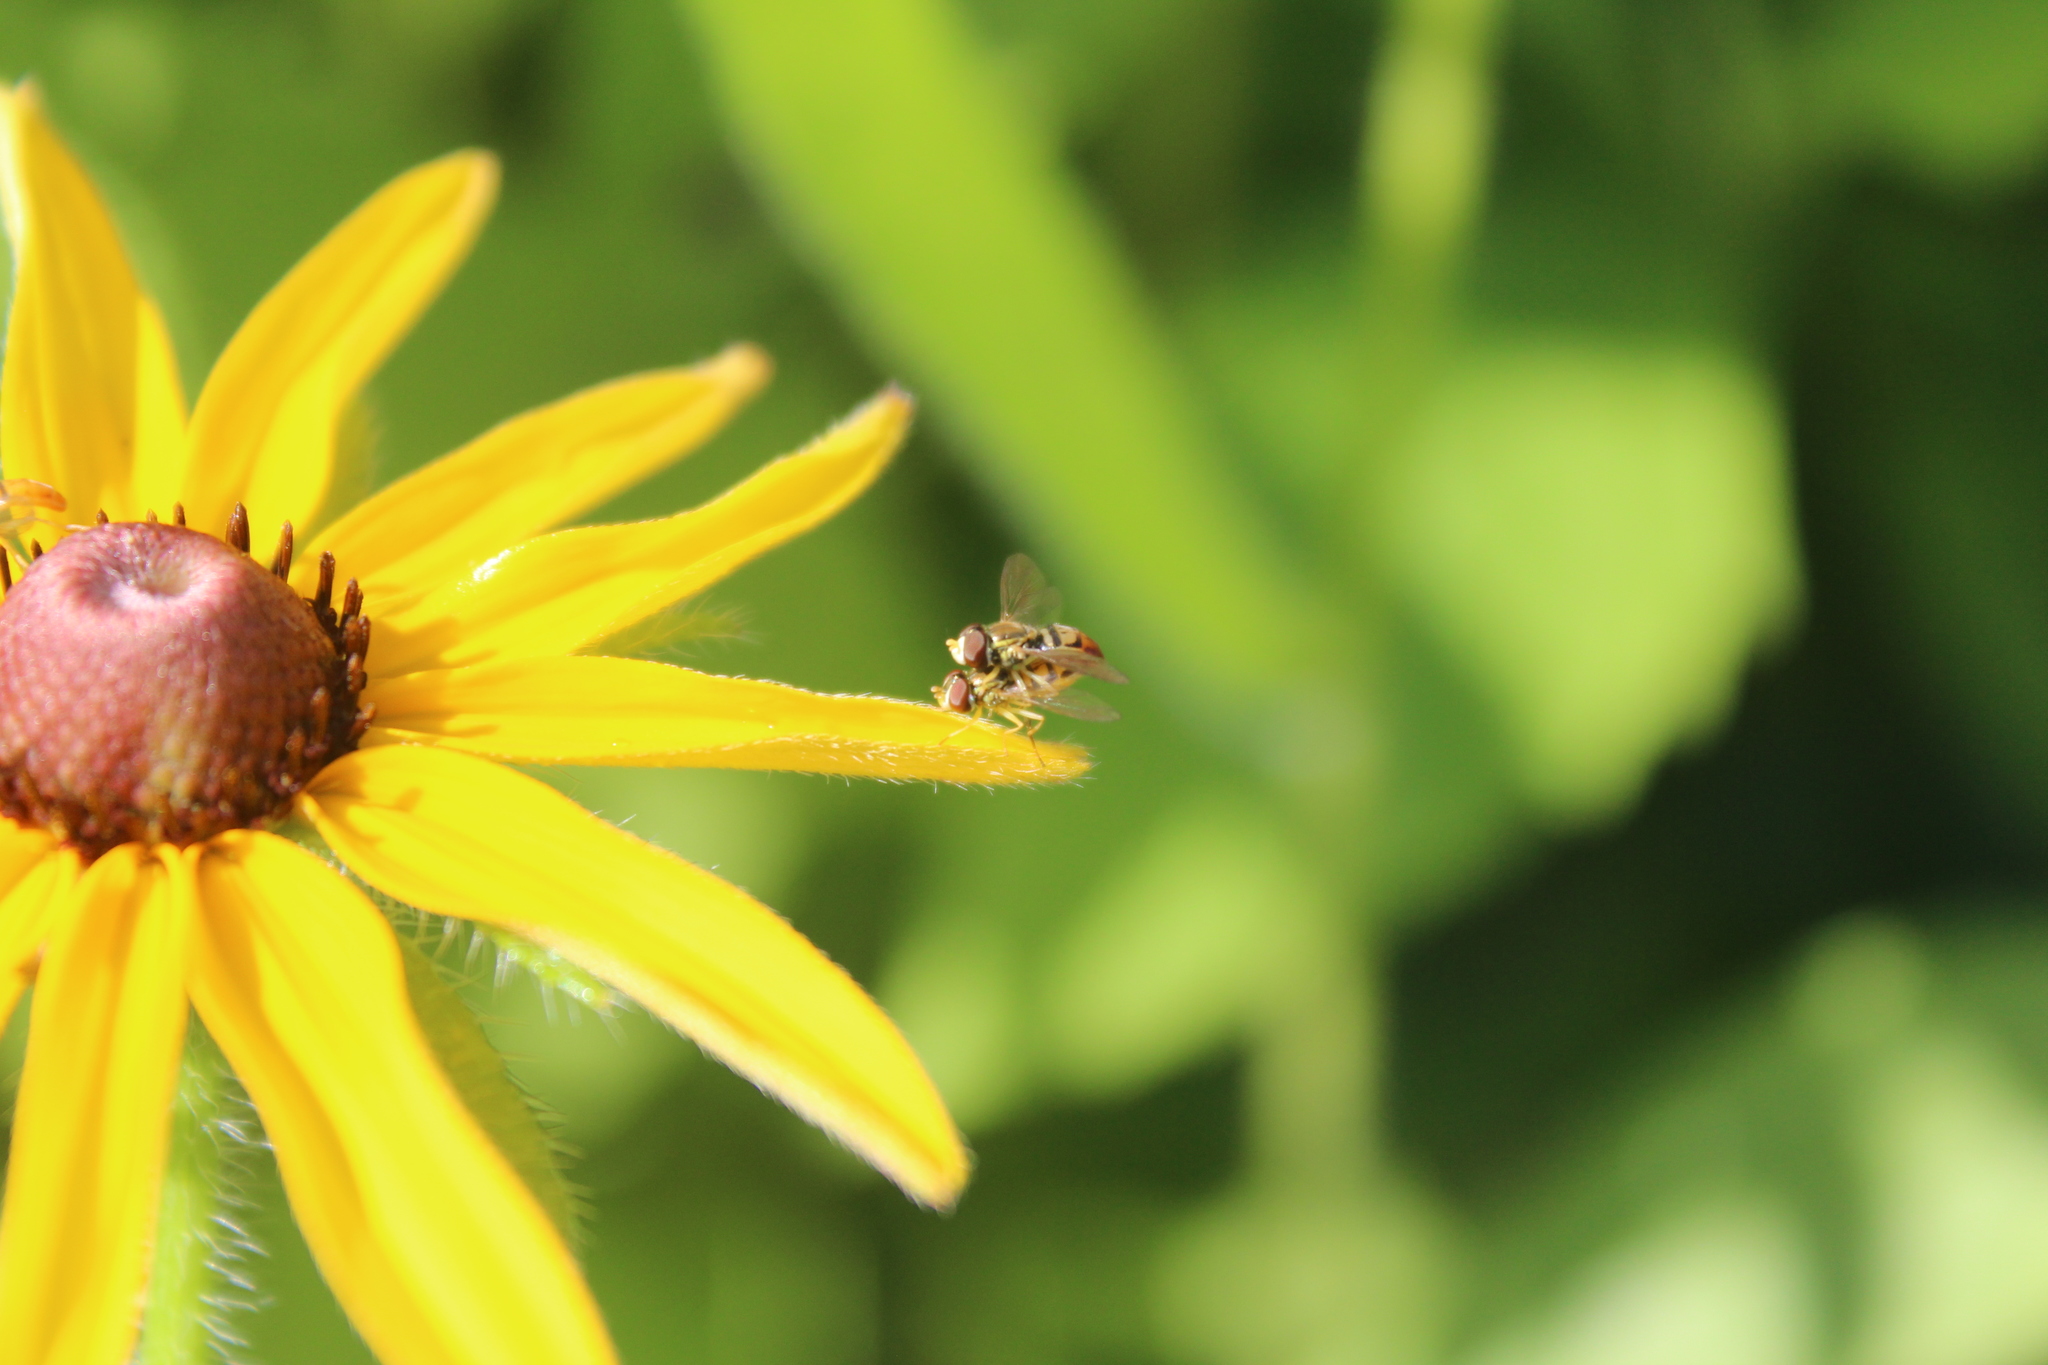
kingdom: Animalia
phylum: Arthropoda
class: Insecta
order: Diptera
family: Syrphidae
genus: Toxomerus
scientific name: Toxomerus marginatus
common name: Syrphid fly
